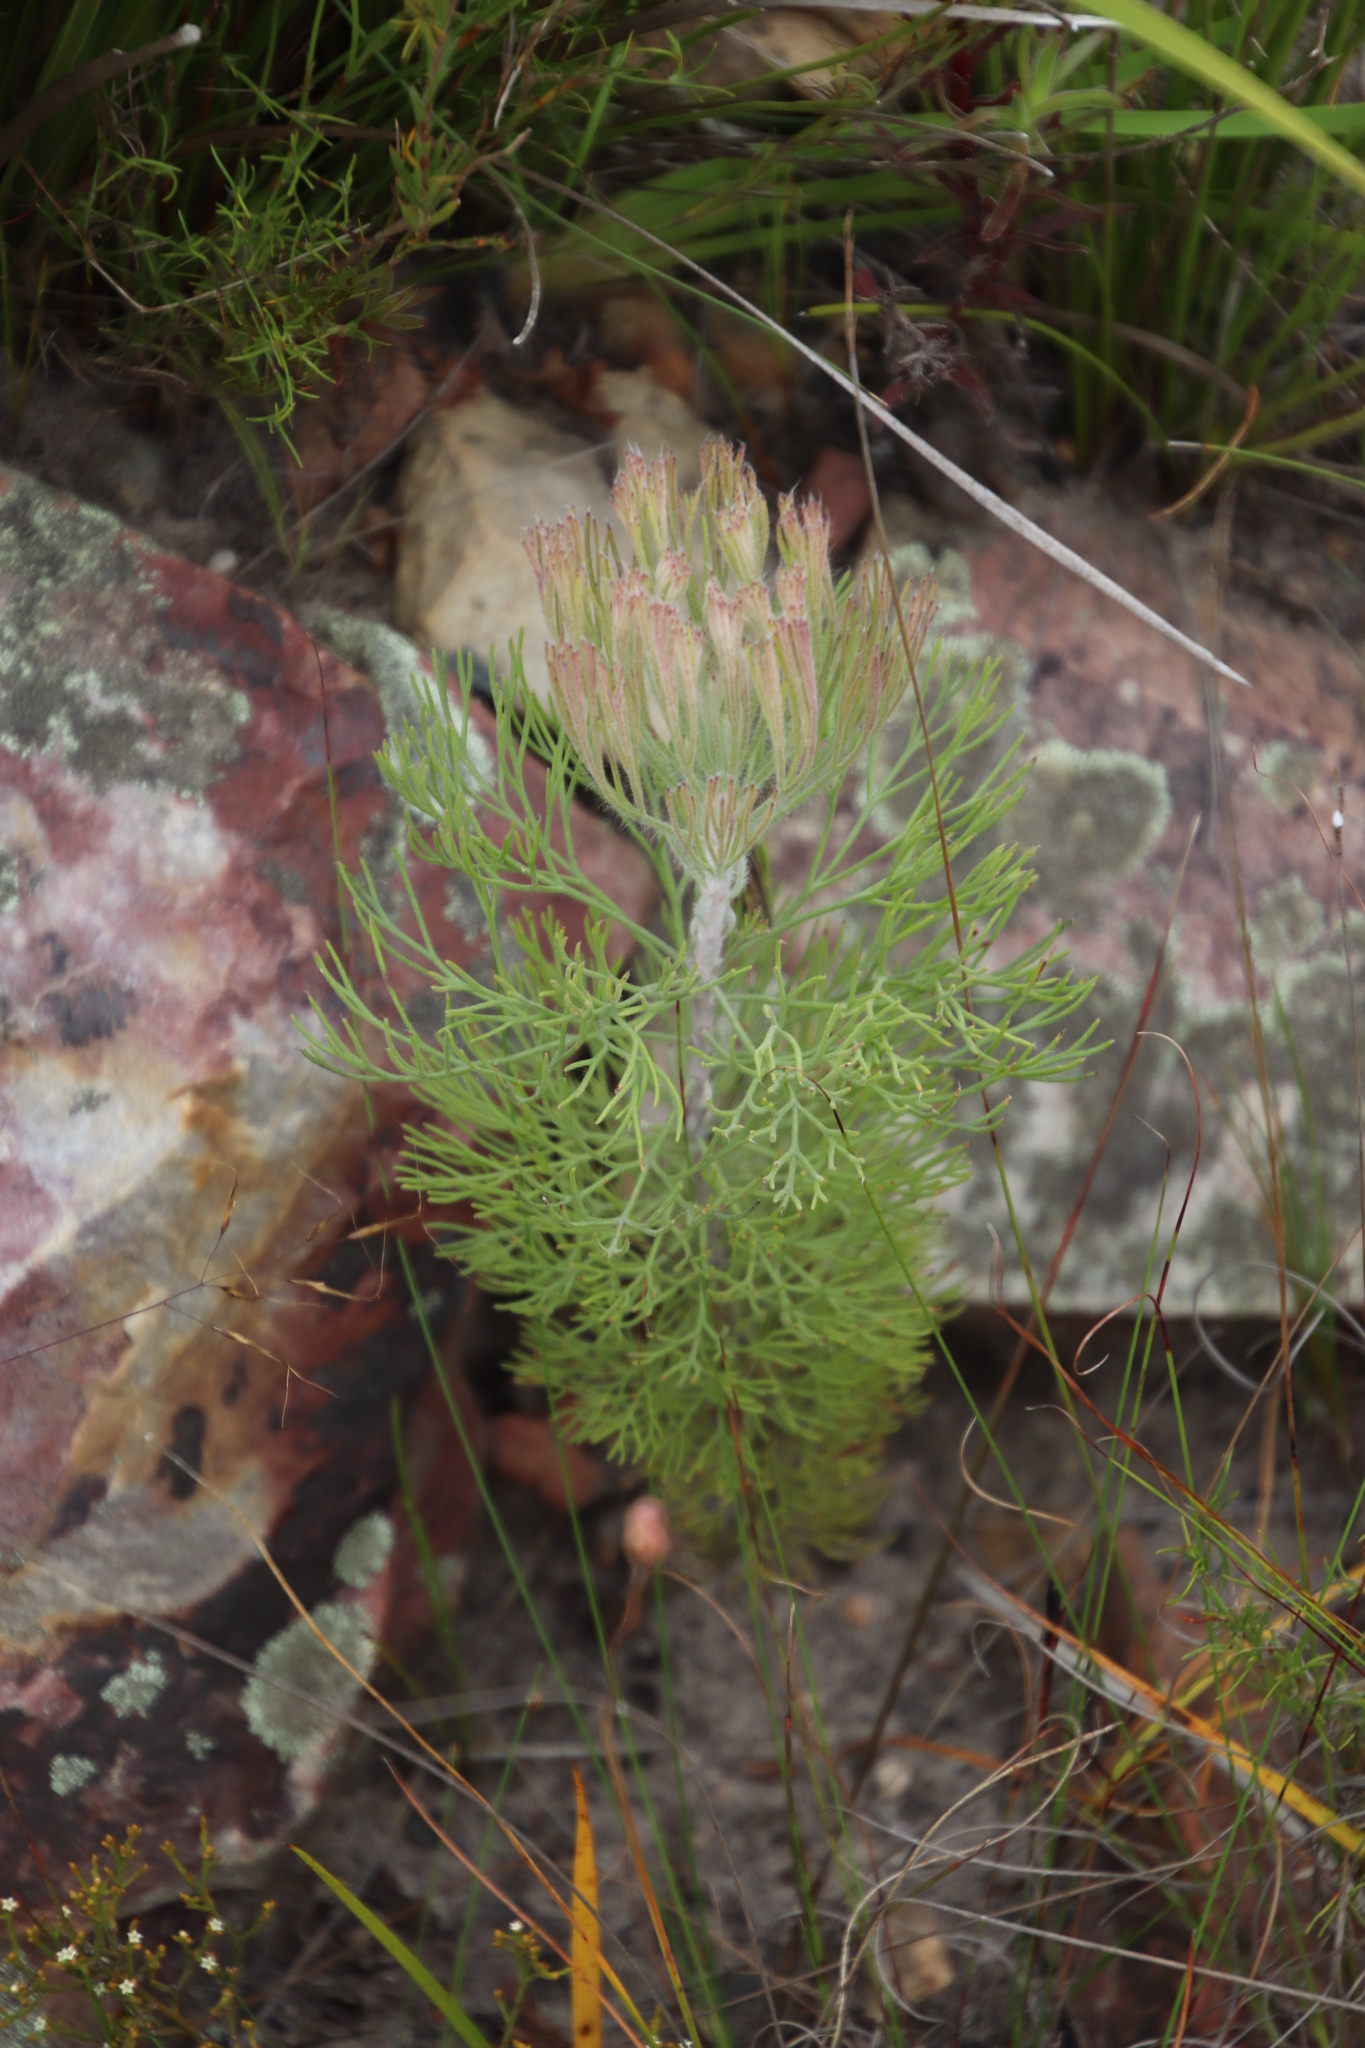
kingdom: Plantae
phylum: Tracheophyta
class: Magnoliopsida
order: Proteales
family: Proteaceae
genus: Paranomus
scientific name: Paranomus dispersus
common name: Long-head sceptre
